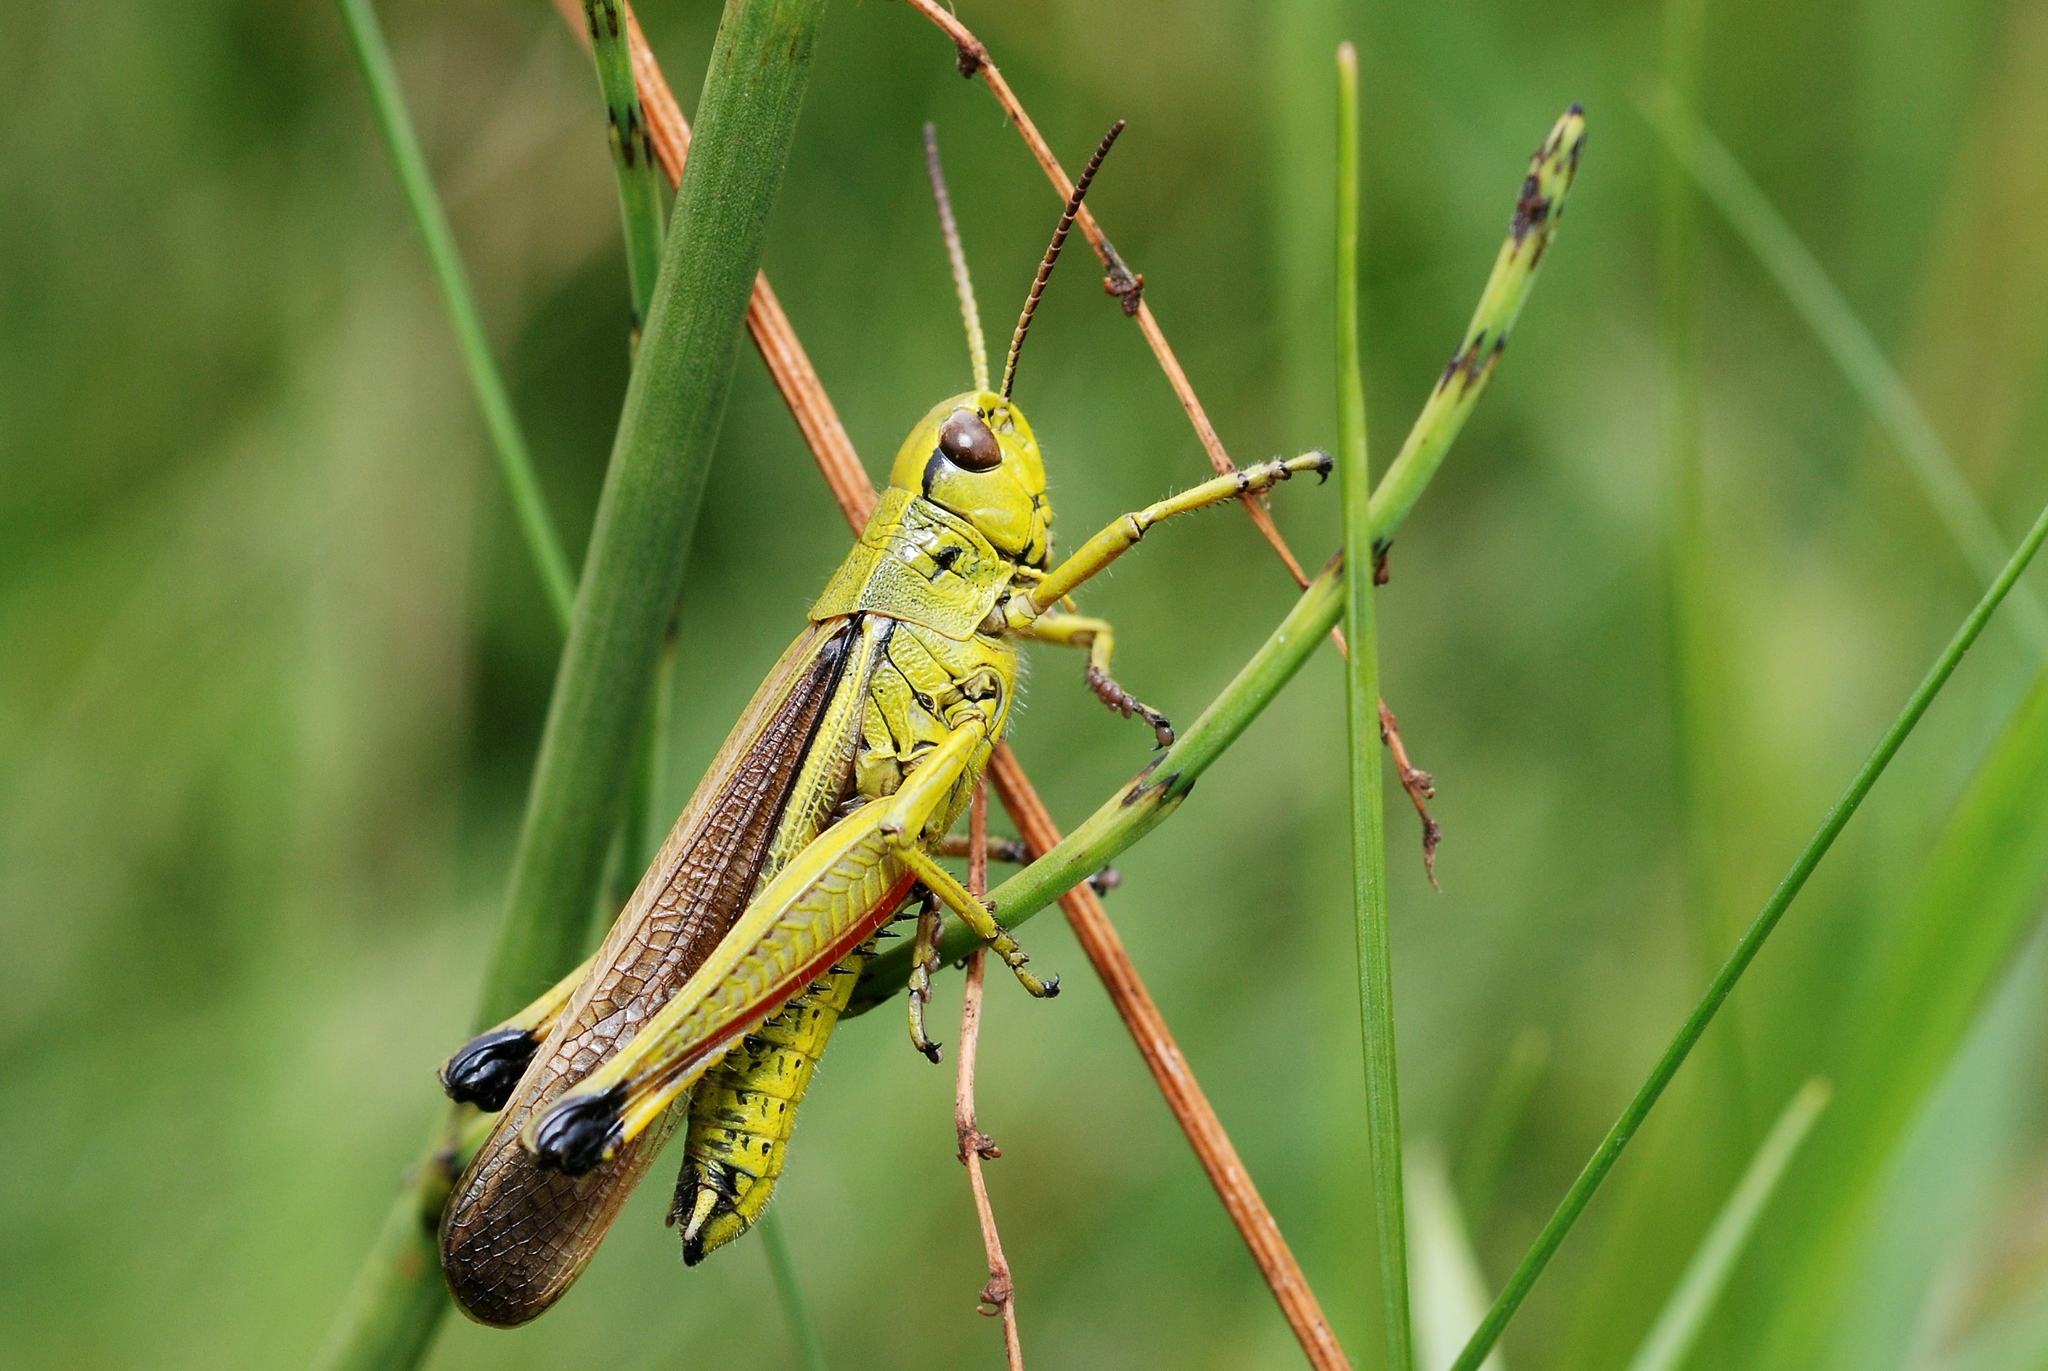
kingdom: Animalia
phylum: Arthropoda
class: Insecta
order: Orthoptera
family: Acrididae
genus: Stethophyma
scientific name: Stethophyma grossum
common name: Large marsh grasshopper
